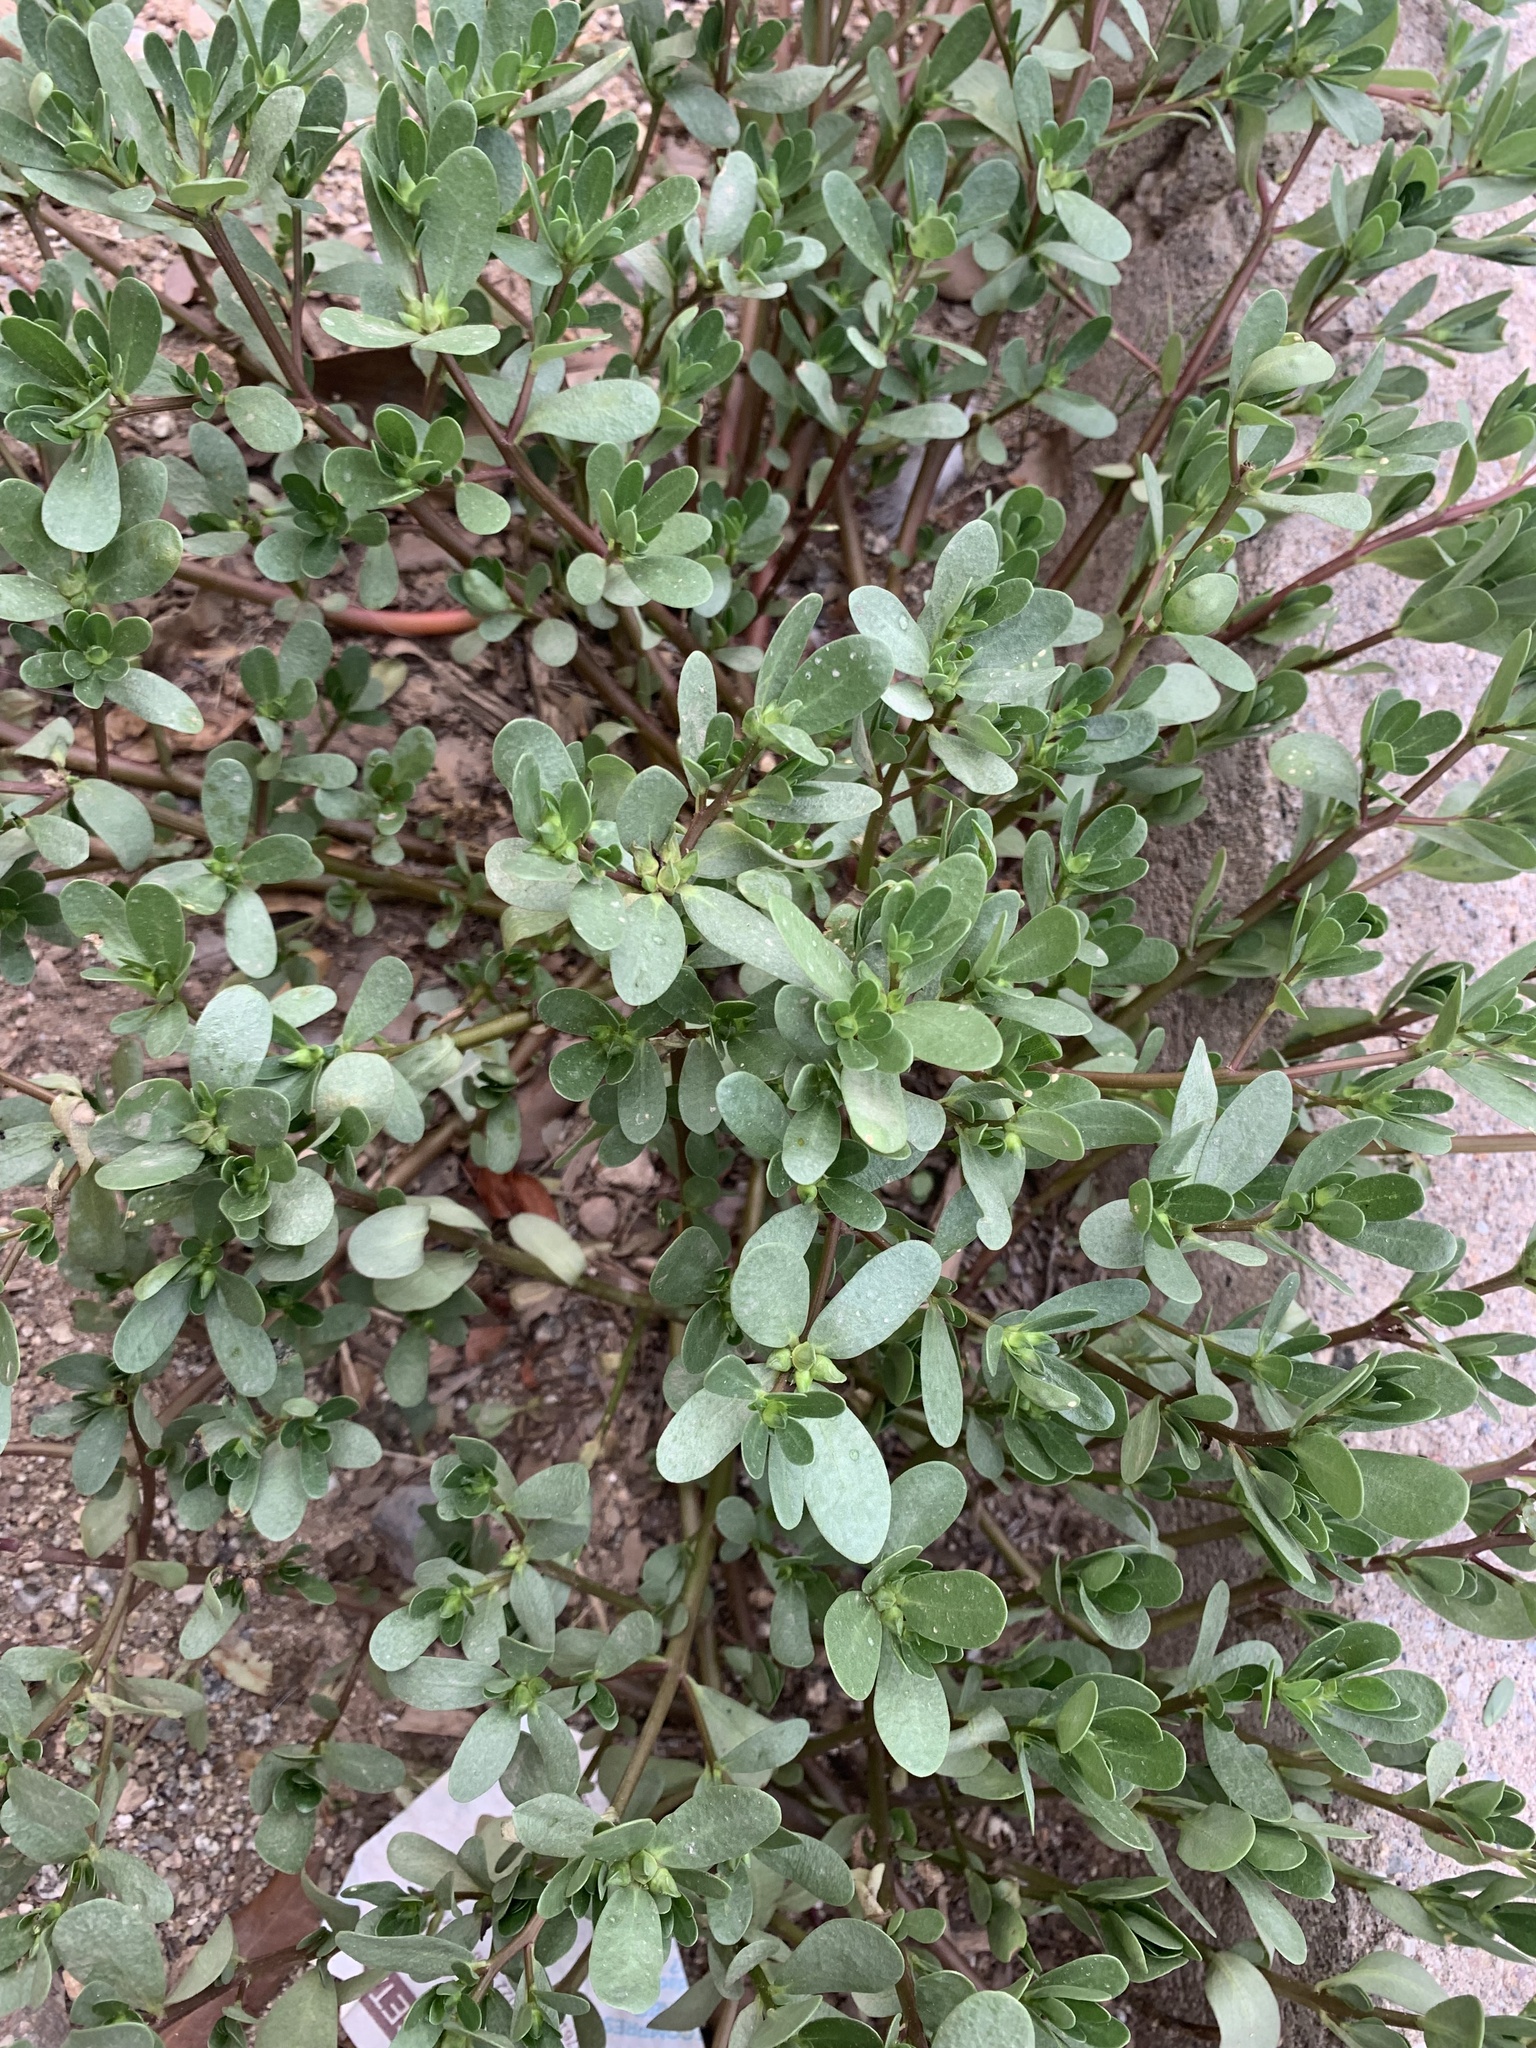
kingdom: Plantae
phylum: Tracheophyta
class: Magnoliopsida
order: Caryophyllales
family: Portulacaceae
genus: Portulaca
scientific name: Portulaca oleracea
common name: Common purslane
